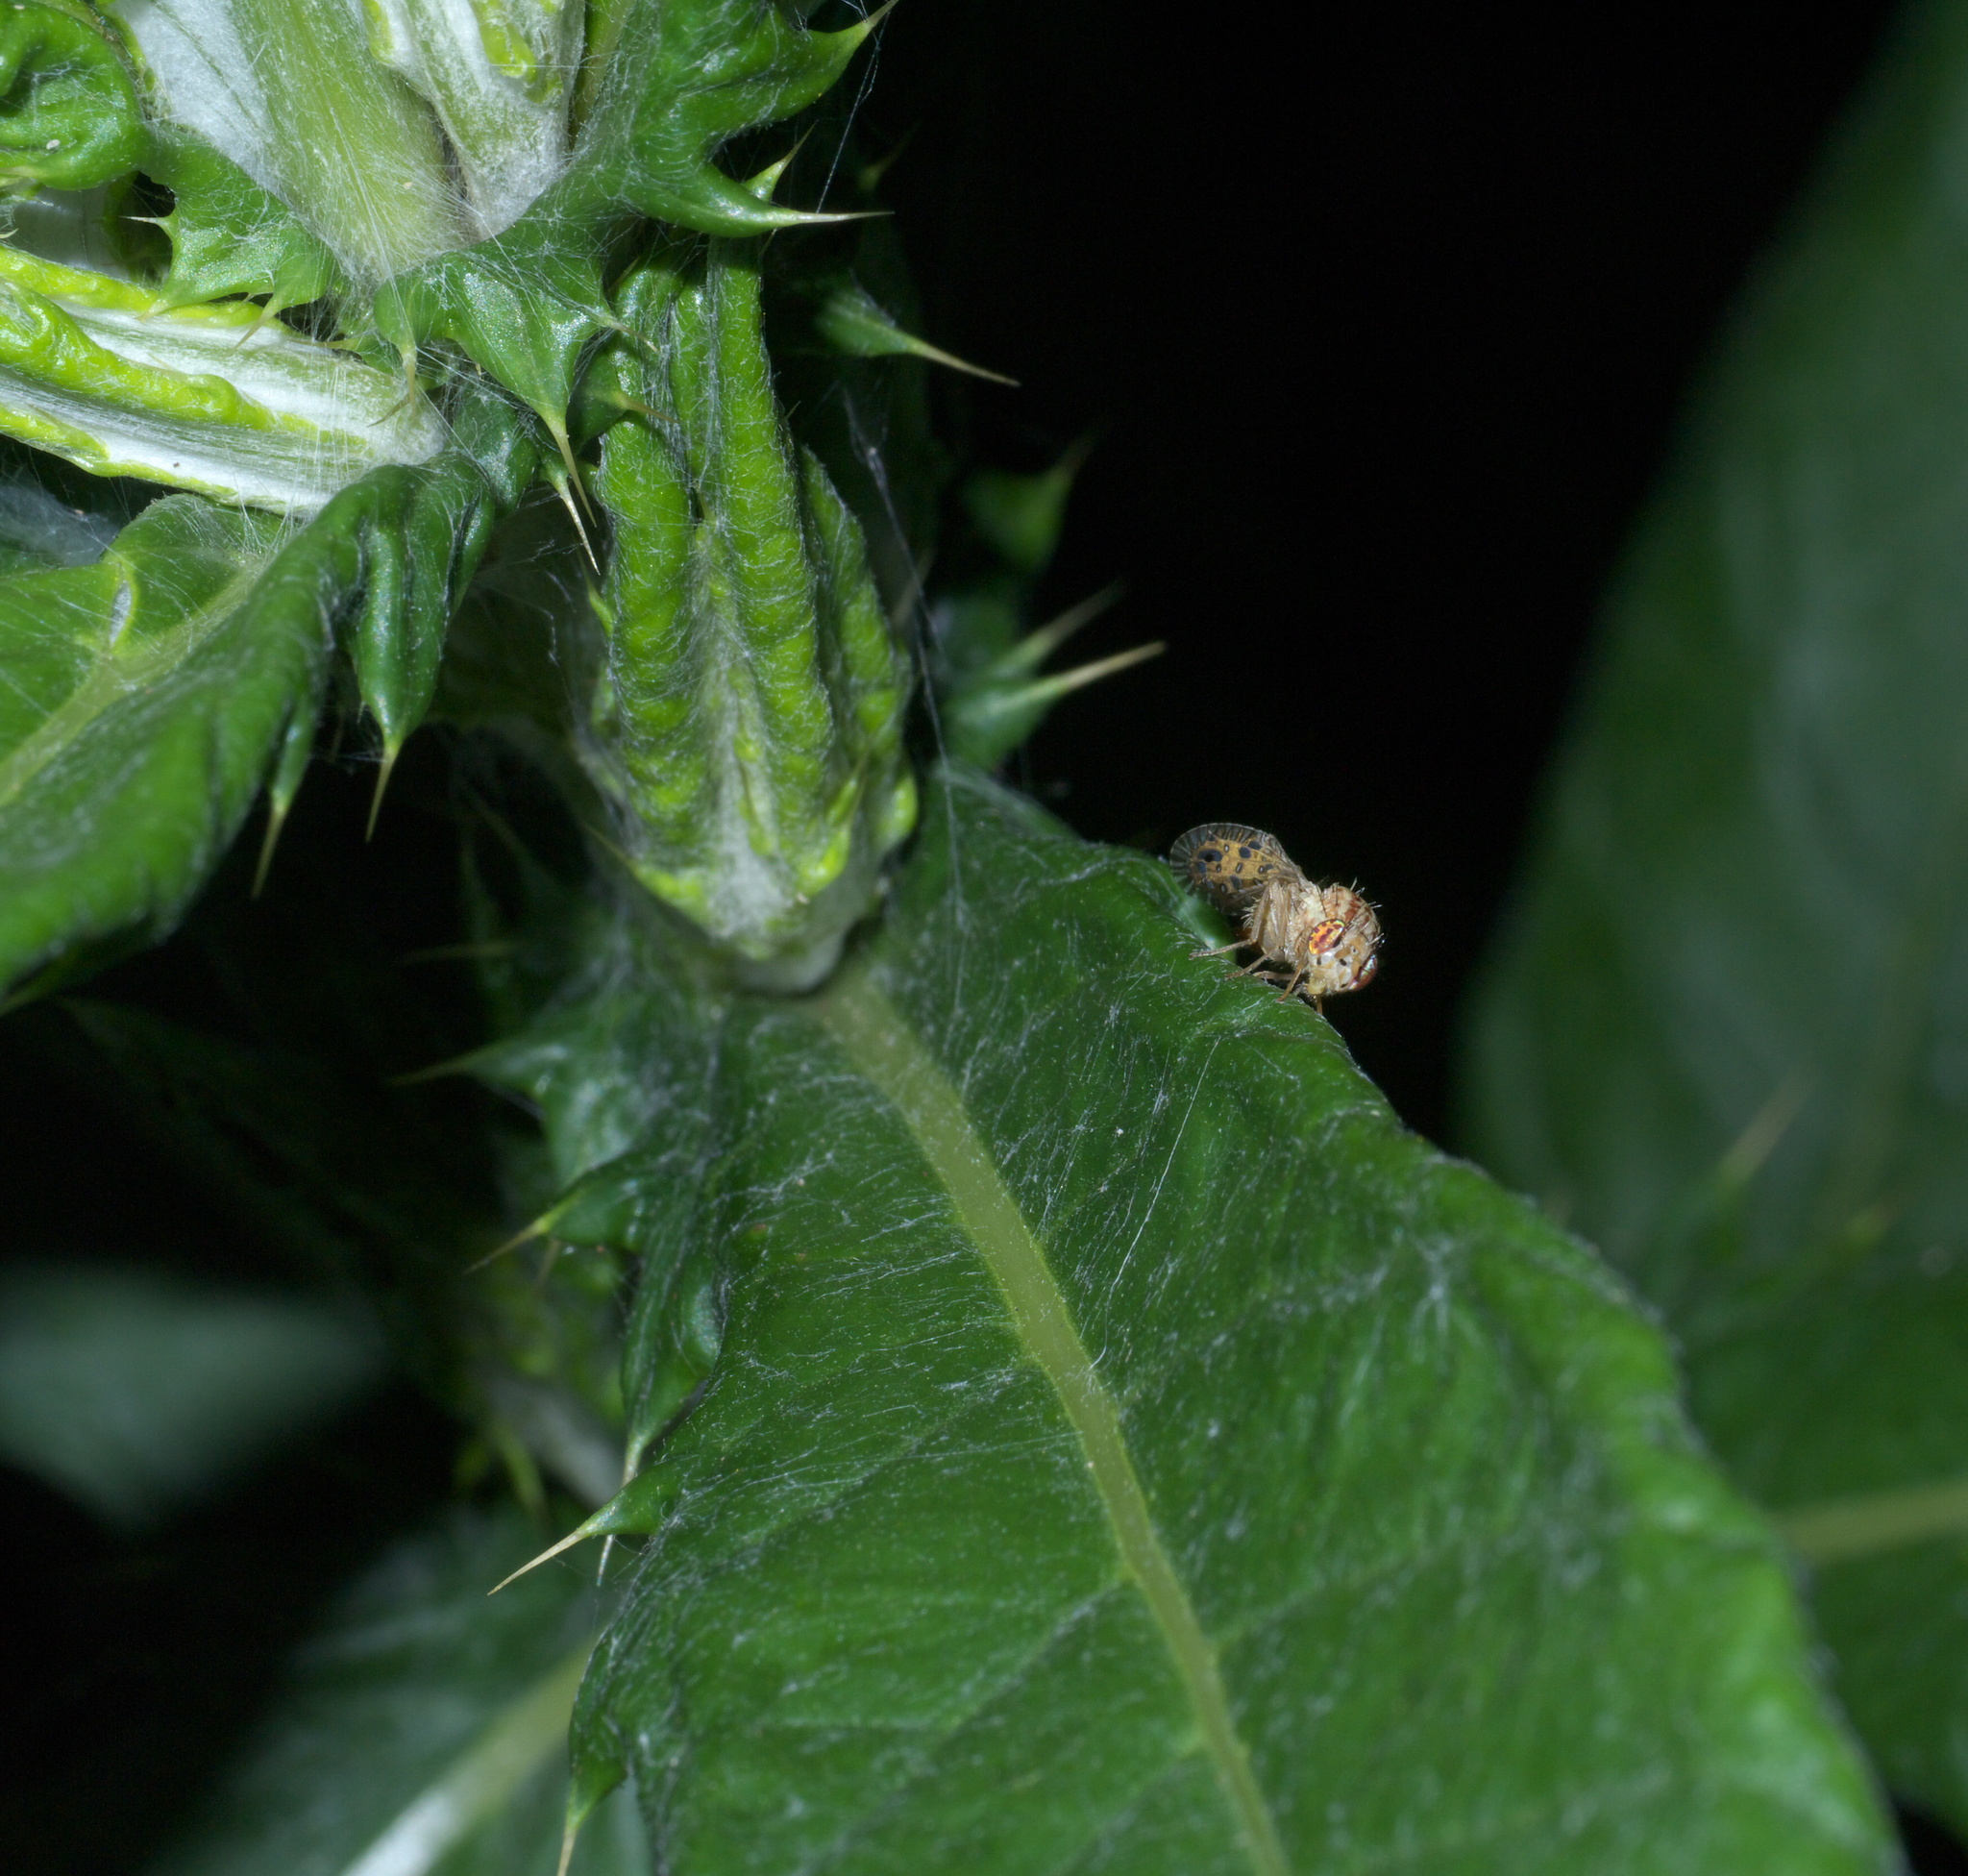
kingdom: Animalia
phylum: Arthropoda
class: Insecta
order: Diptera
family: Tephritidae
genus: Paracantha
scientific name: Paracantha culta
